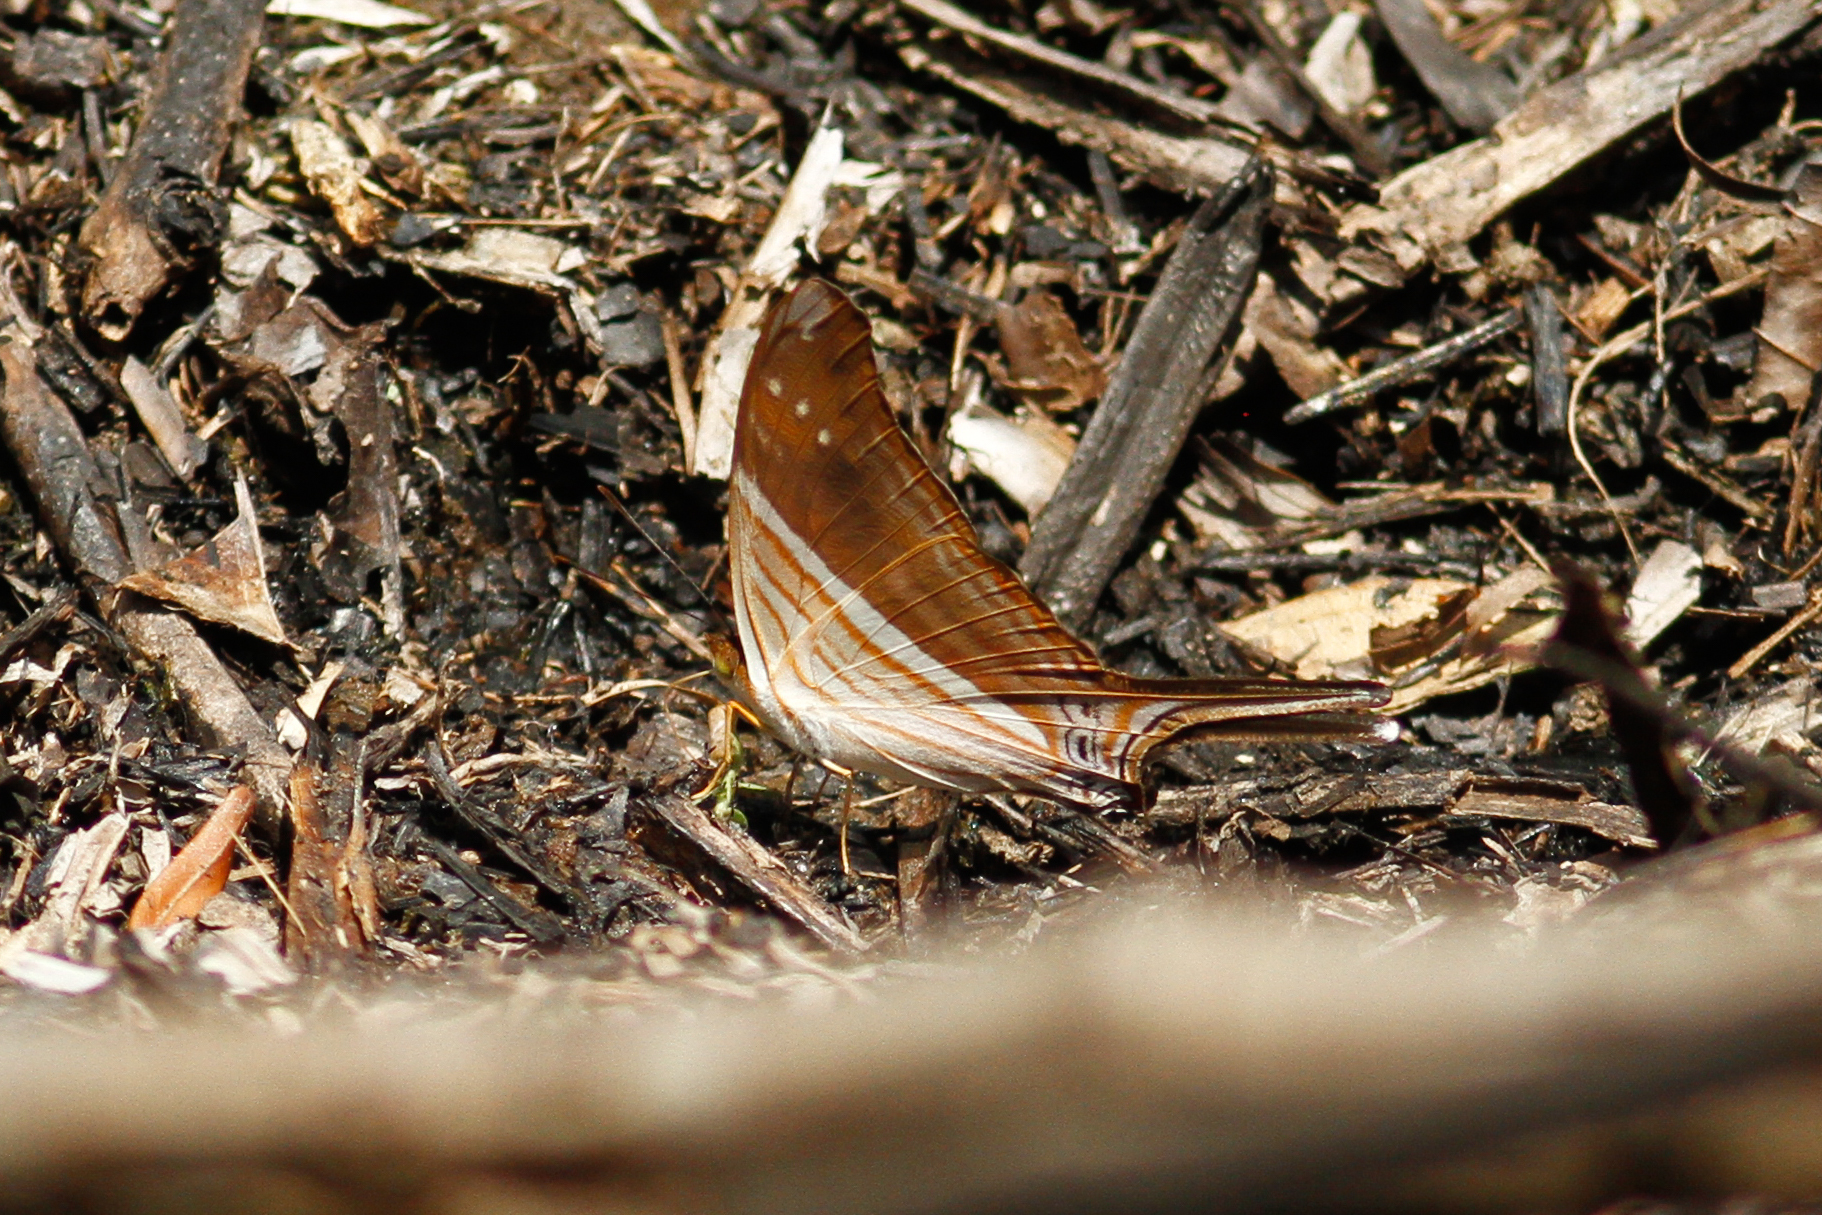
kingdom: Animalia
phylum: Arthropoda
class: Insecta
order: Lepidoptera
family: Nymphalidae
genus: Marpesia
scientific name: Marpesia chiron
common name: Many-banded daggerwing
